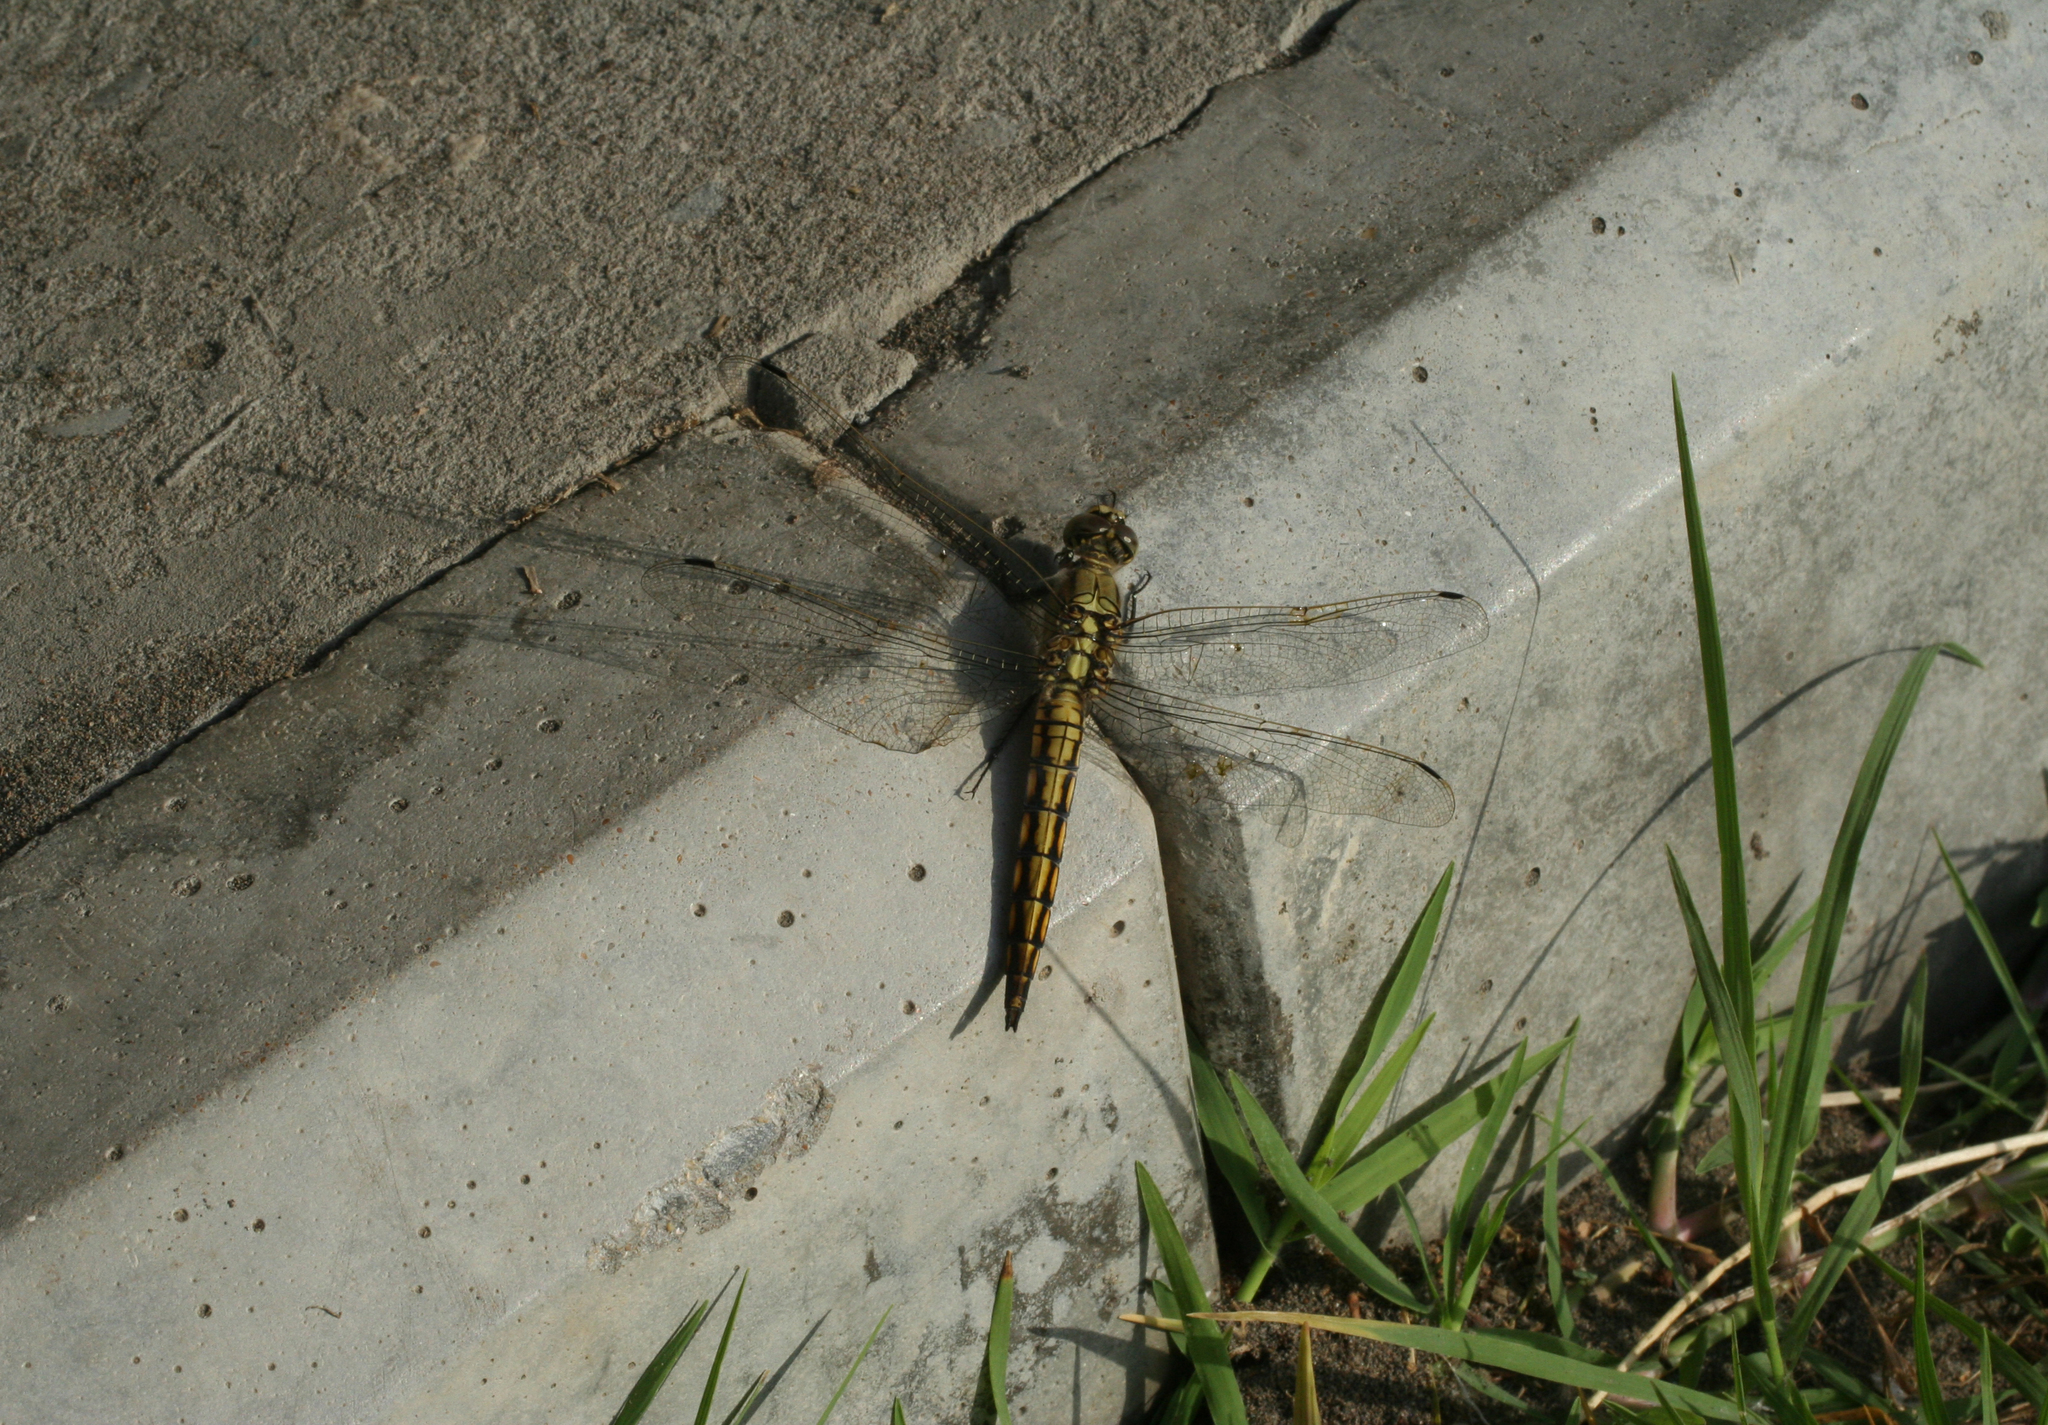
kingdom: Animalia
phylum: Arthropoda
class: Insecta
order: Odonata
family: Libellulidae
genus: Orthetrum
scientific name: Orthetrum cancellatum
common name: Black-tailed skimmer
